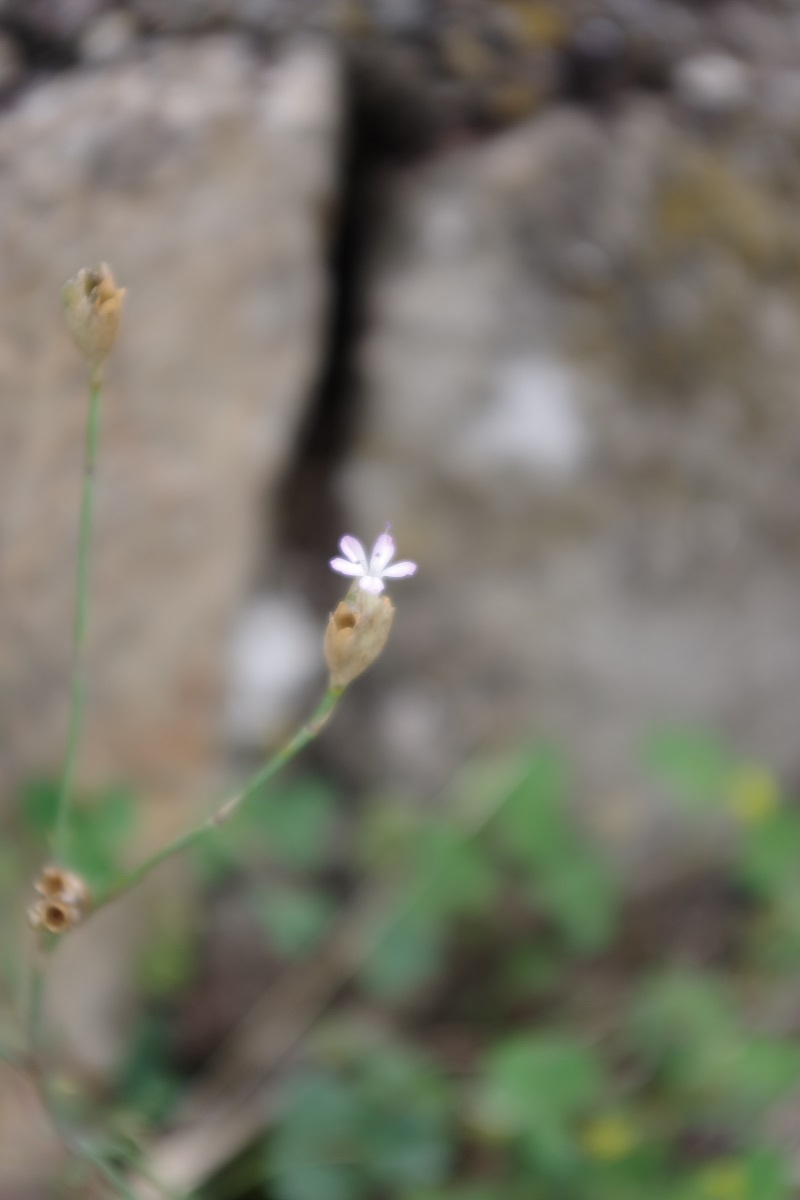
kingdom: Plantae
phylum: Tracheophyta
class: Magnoliopsida
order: Caryophyllales
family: Caryophyllaceae
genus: Petrorhagia
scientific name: Petrorhagia prolifera
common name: Proliferous pink
